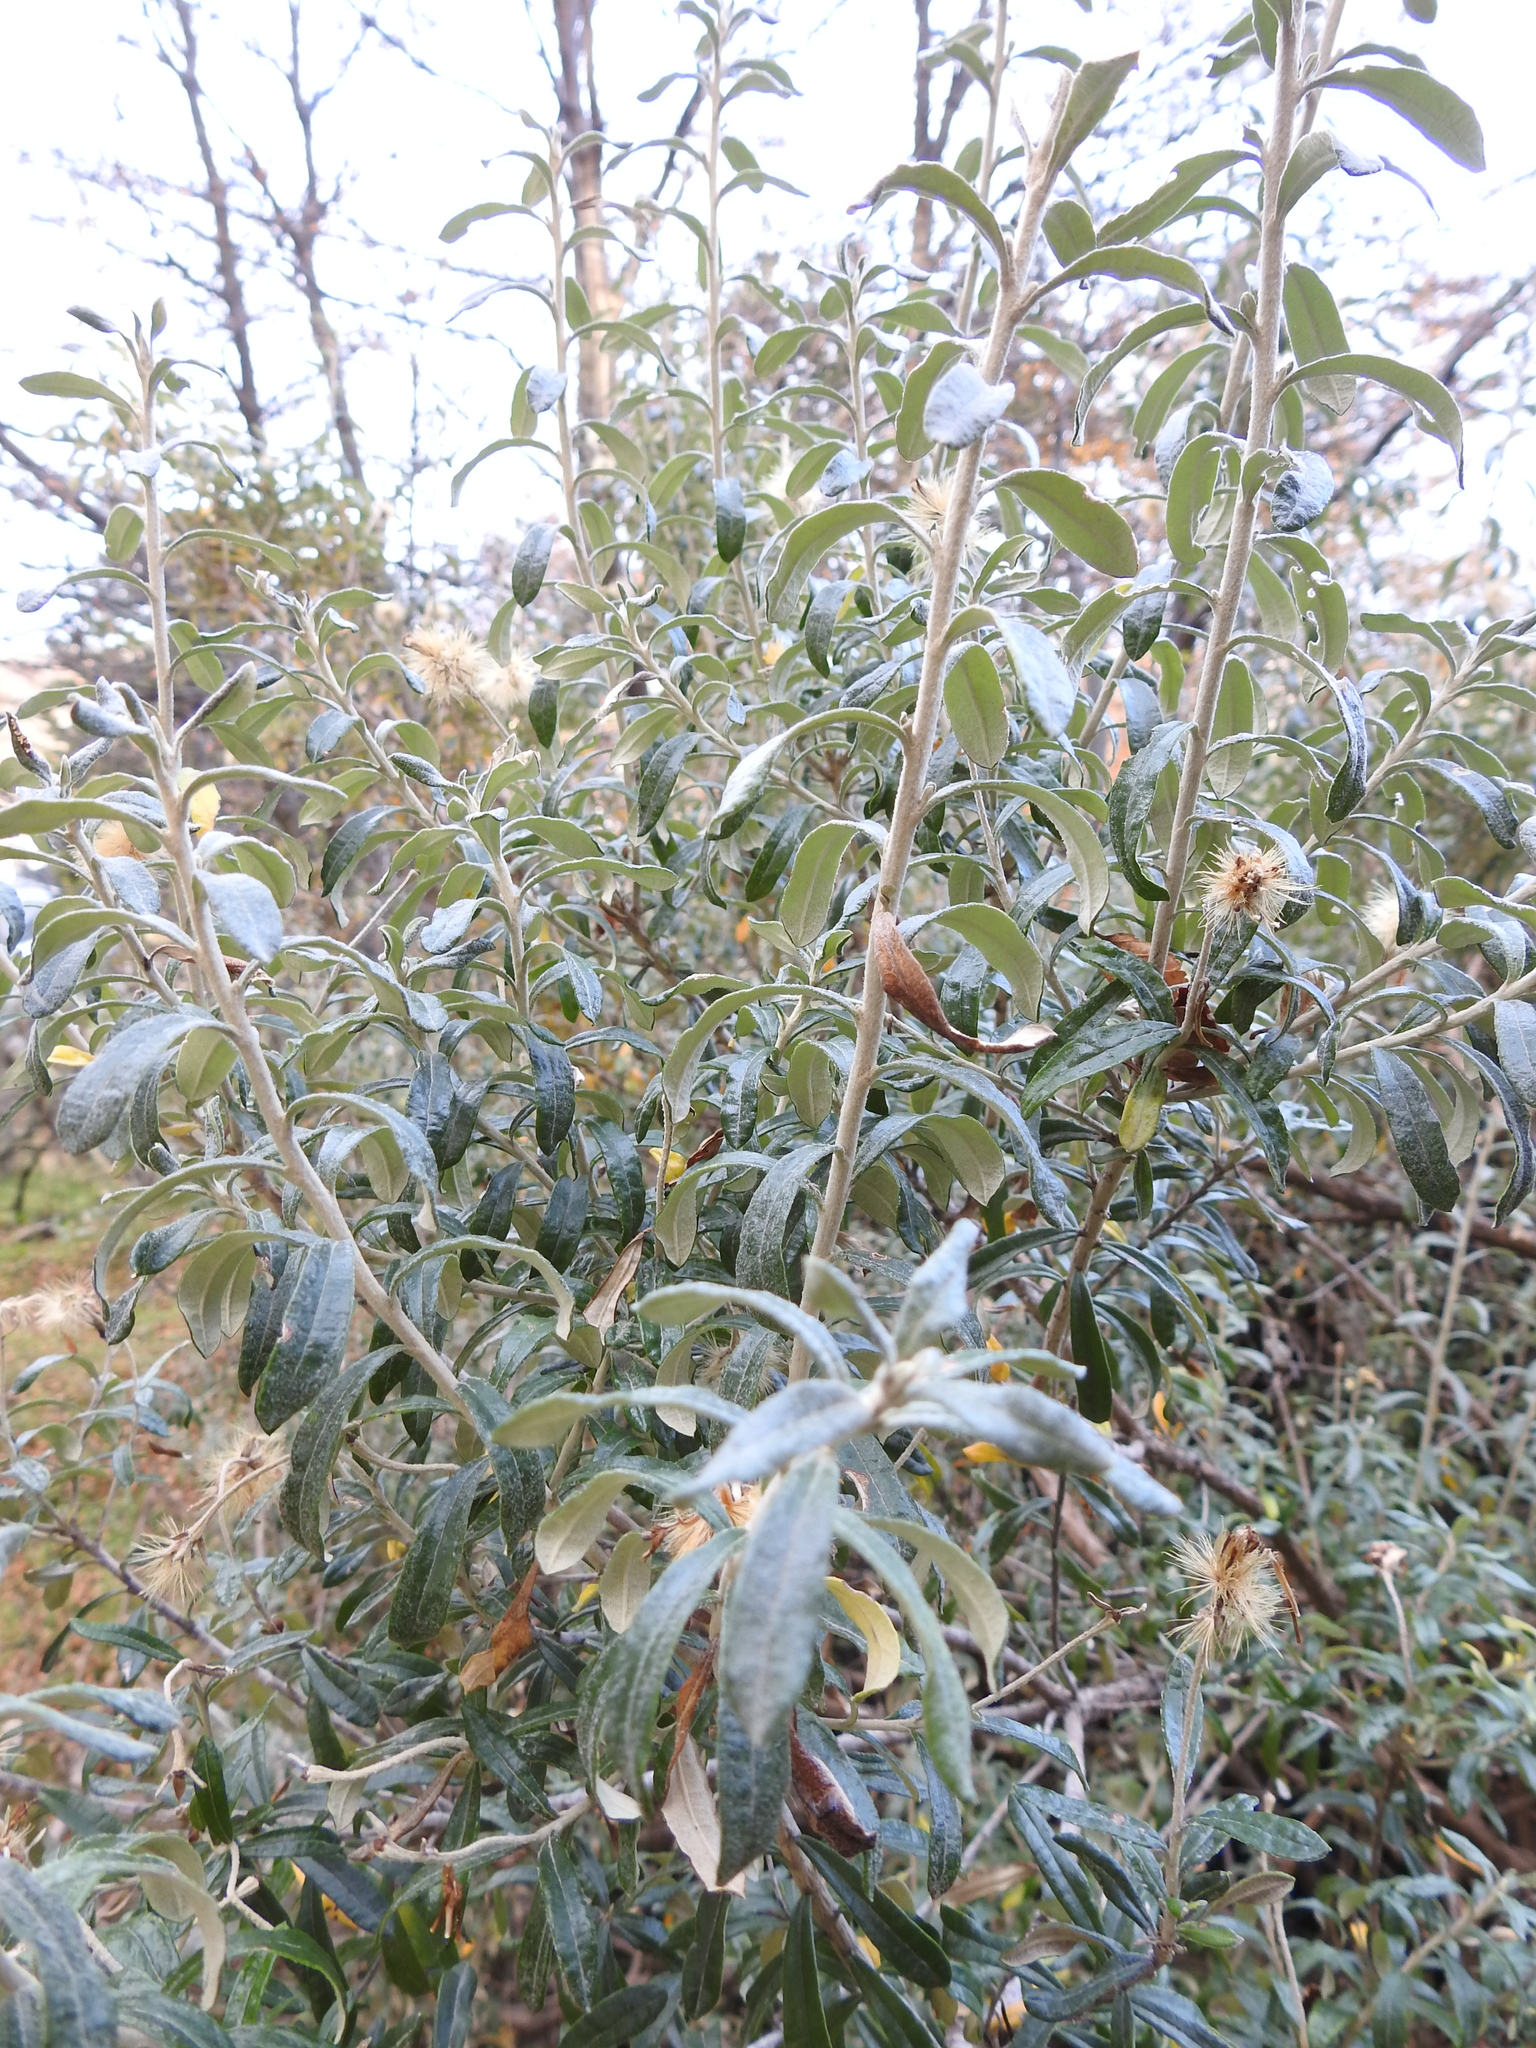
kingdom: Plantae
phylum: Tracheophyta
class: Magnoliopsida
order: Asterales
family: Asteraceae
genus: Chiliotrichum
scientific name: Chiliotrichum diffusum
